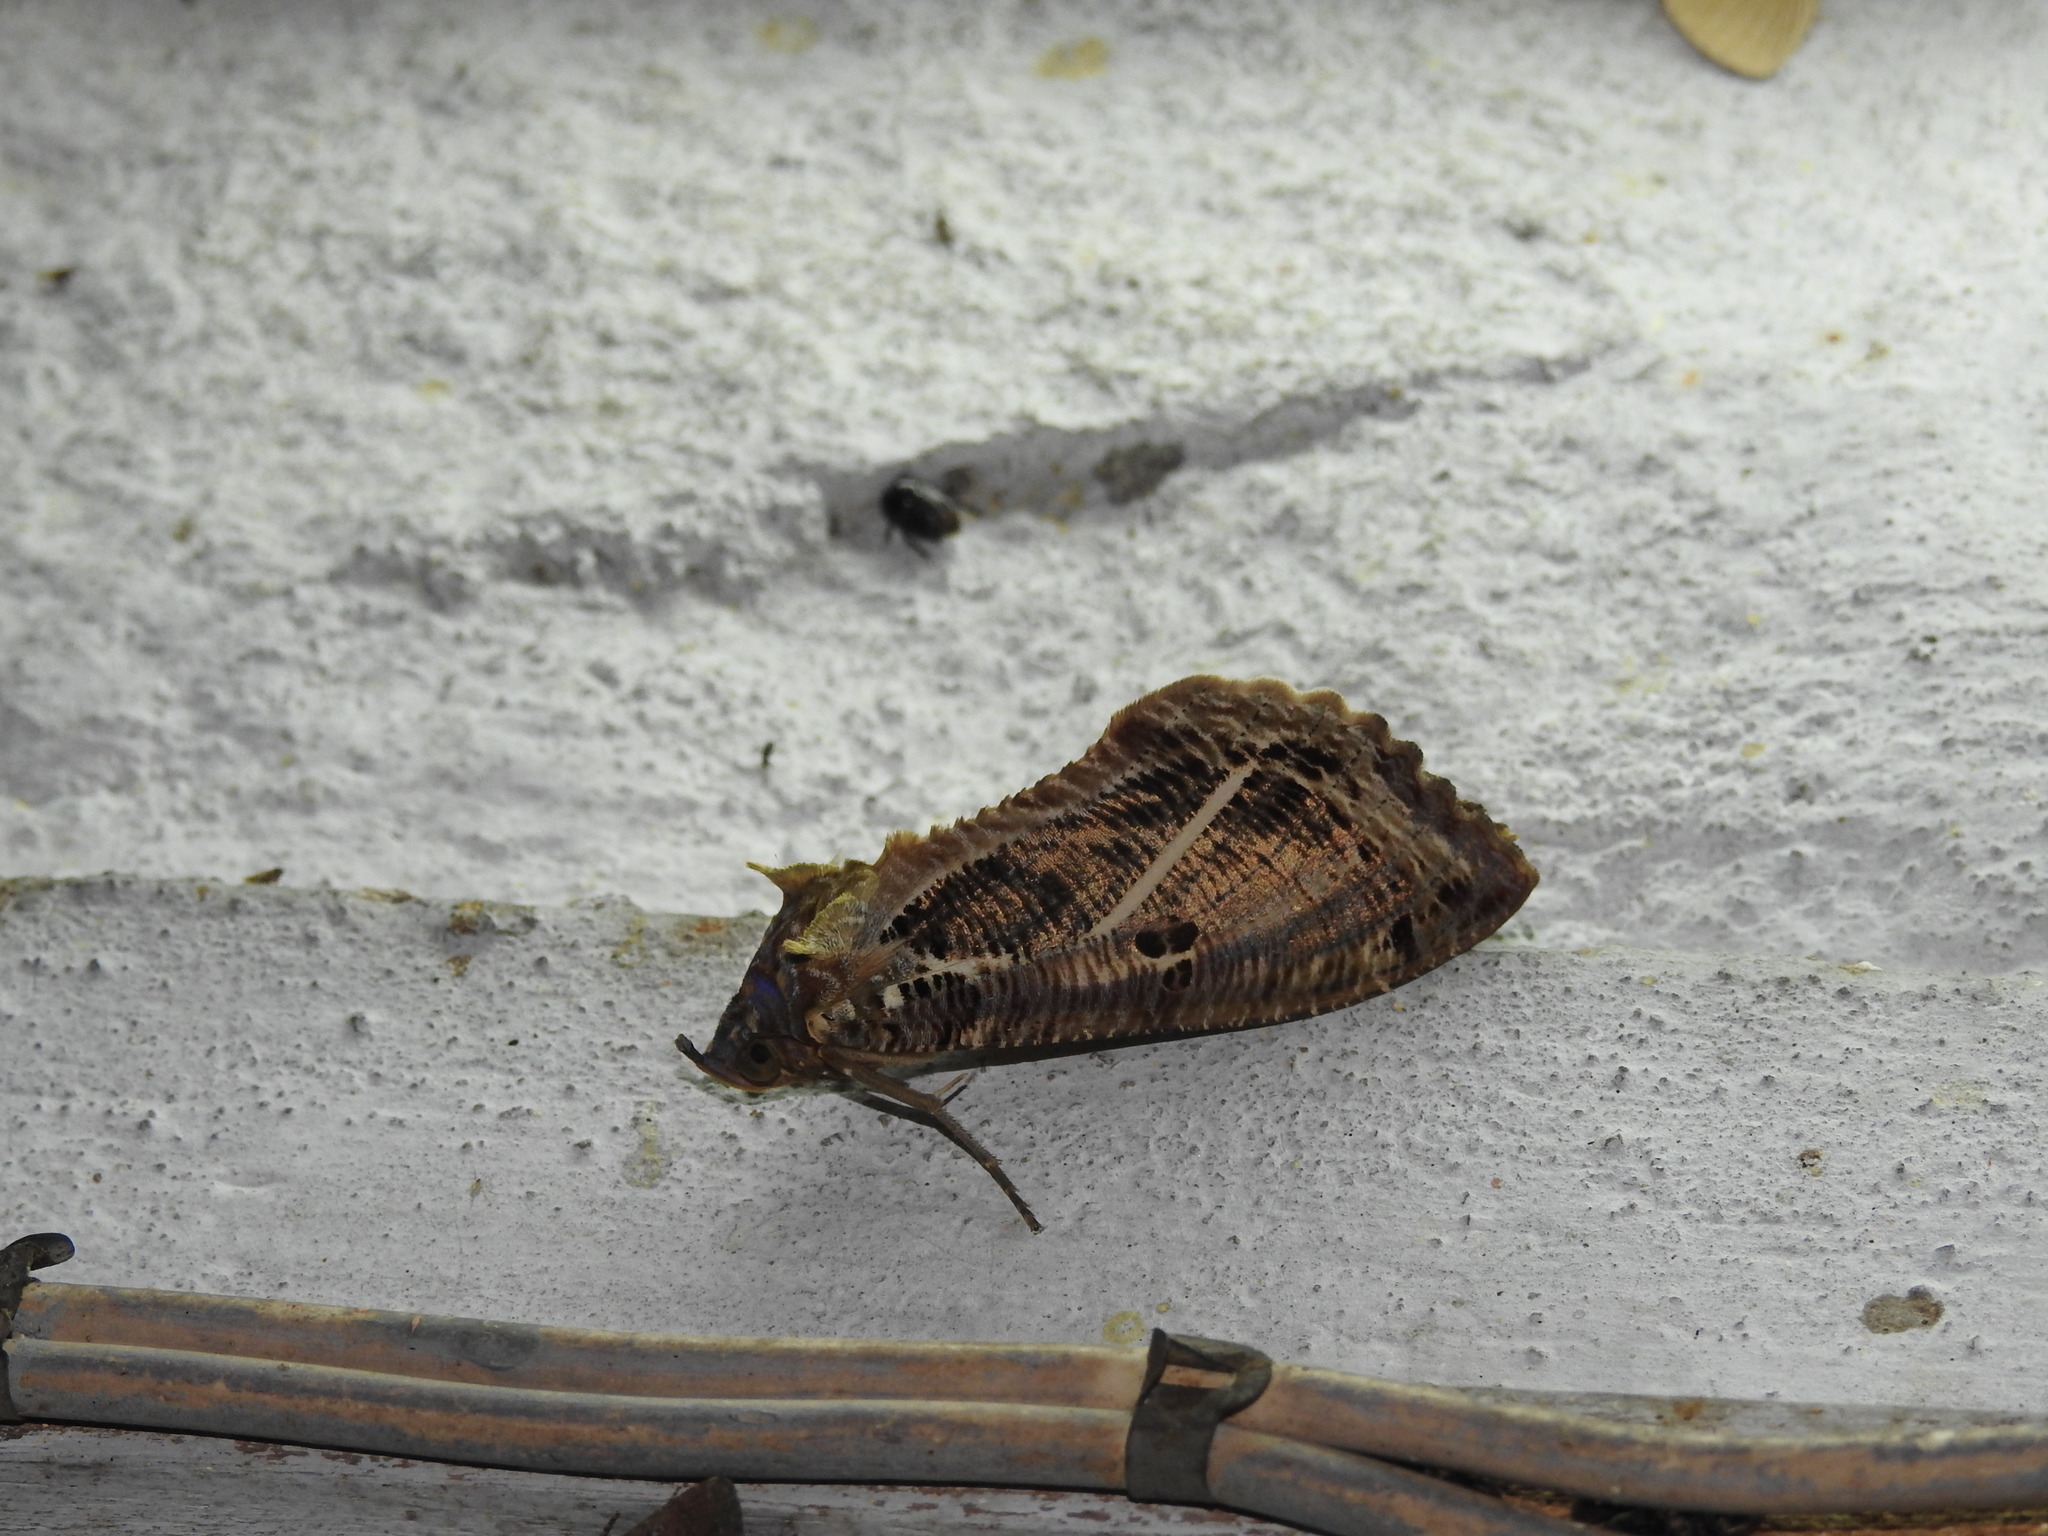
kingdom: Animalia
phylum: Arthropoda
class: Insecta
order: Lepidoptera
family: Erebidae
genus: Eudocima
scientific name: Eudocima materna
